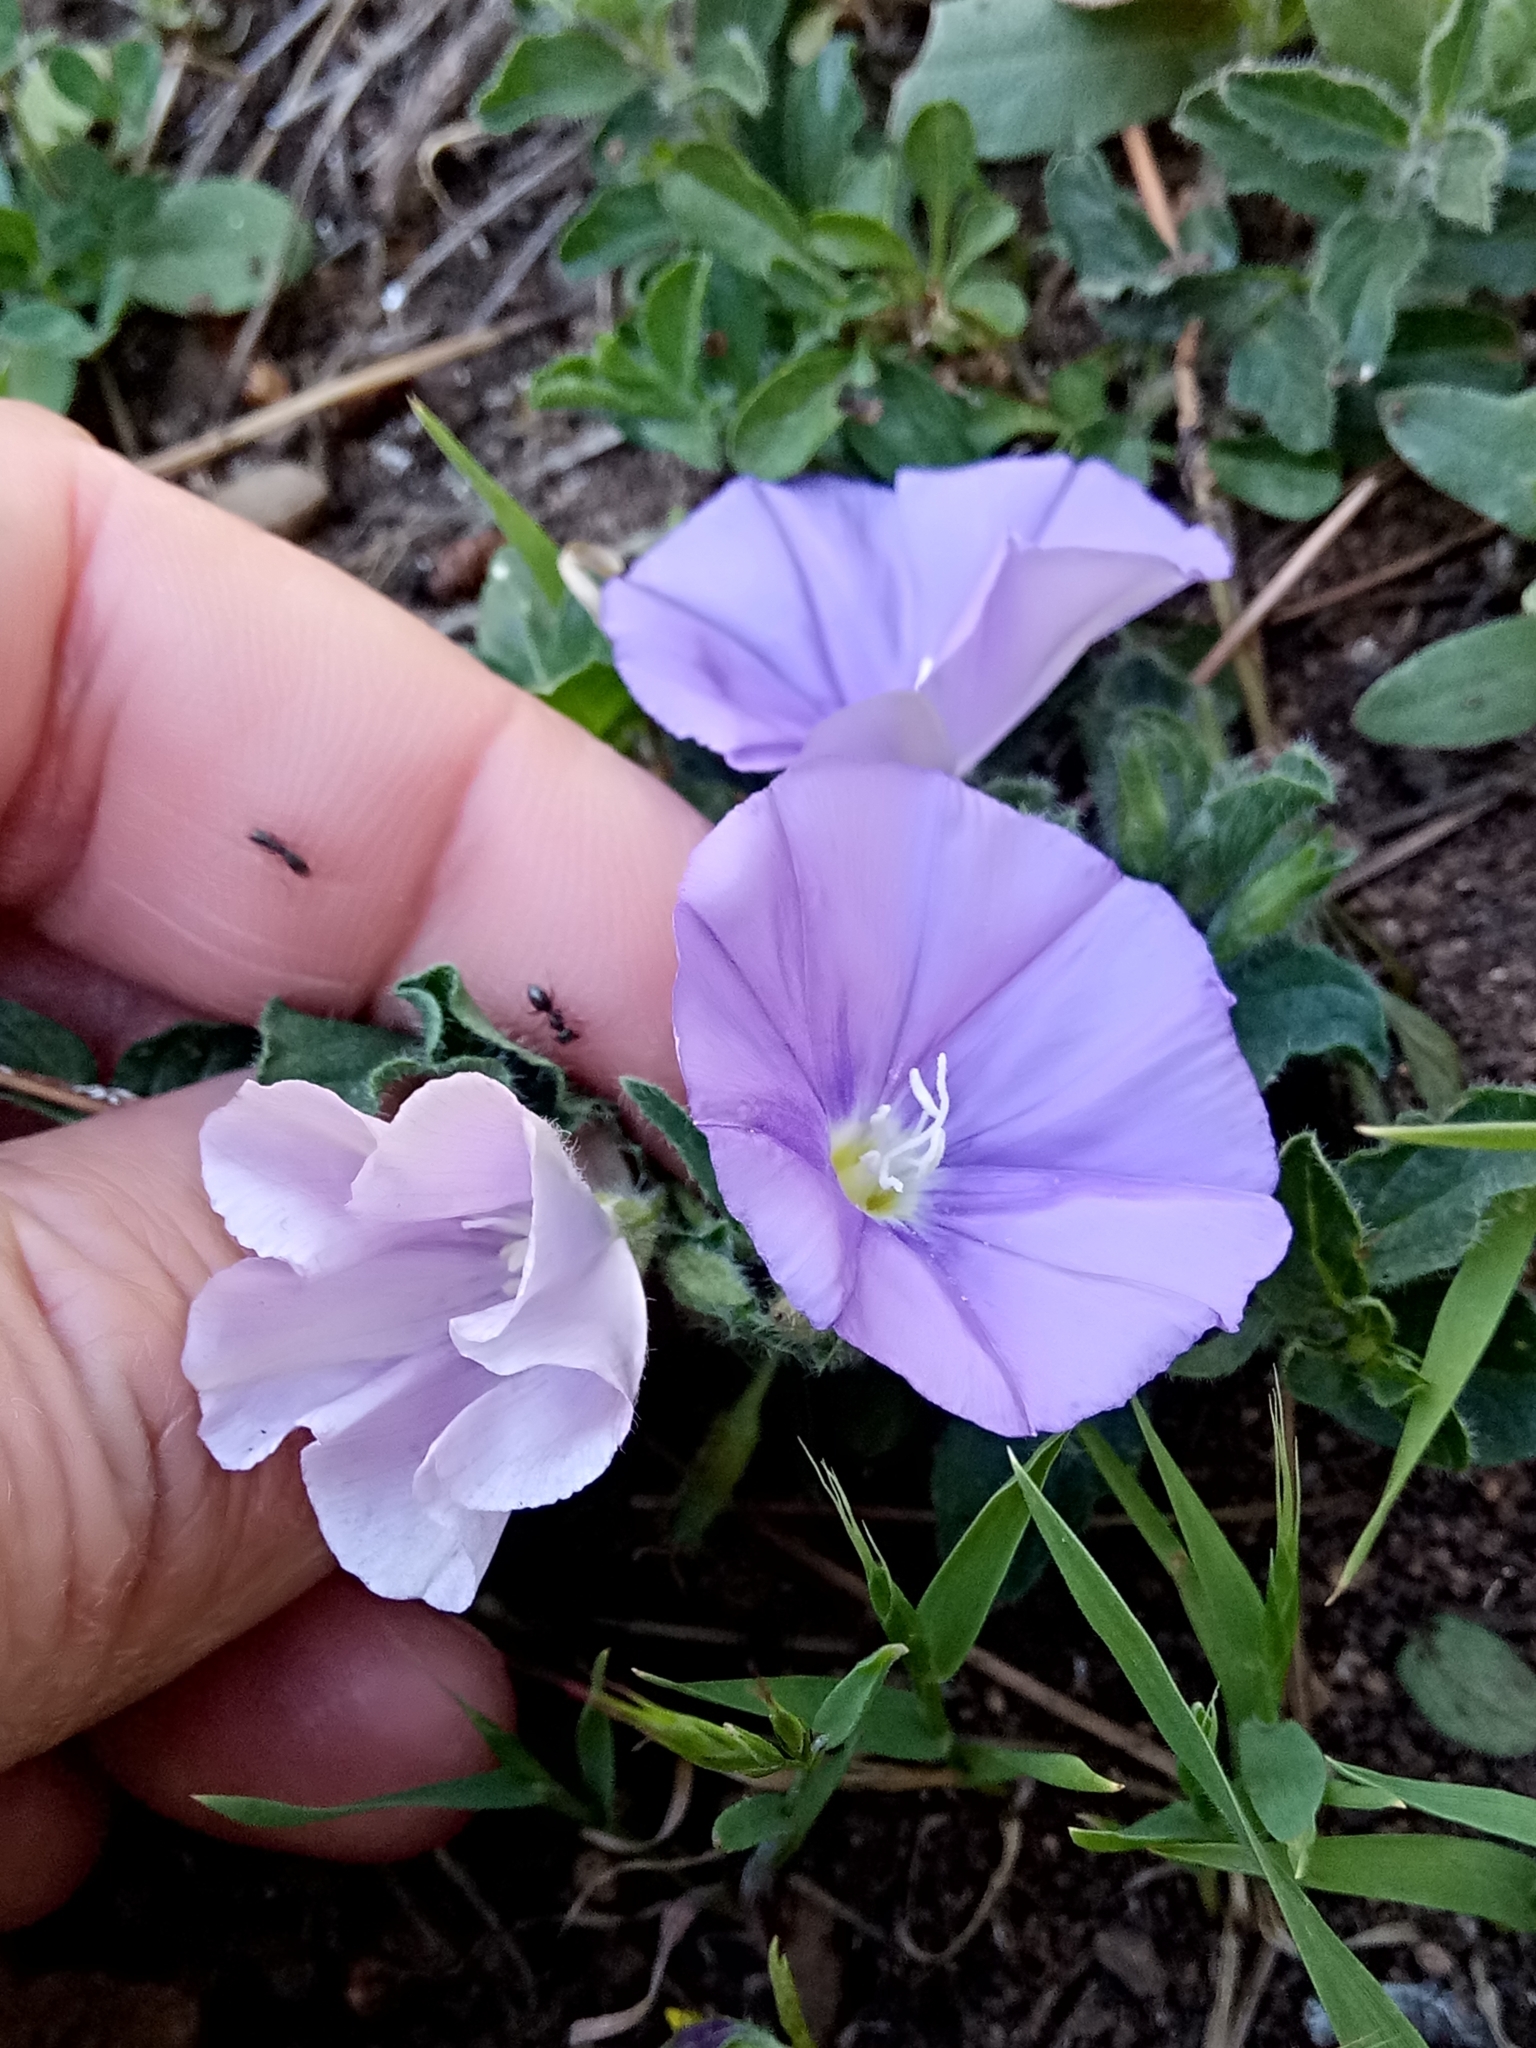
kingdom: Plantae
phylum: Tracheophyta
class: Magnoliopsida
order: Solanales
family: Convolvulaceae
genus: Convolvulus
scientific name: Convolvulus sabatius
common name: Ground blue-convolvulus
